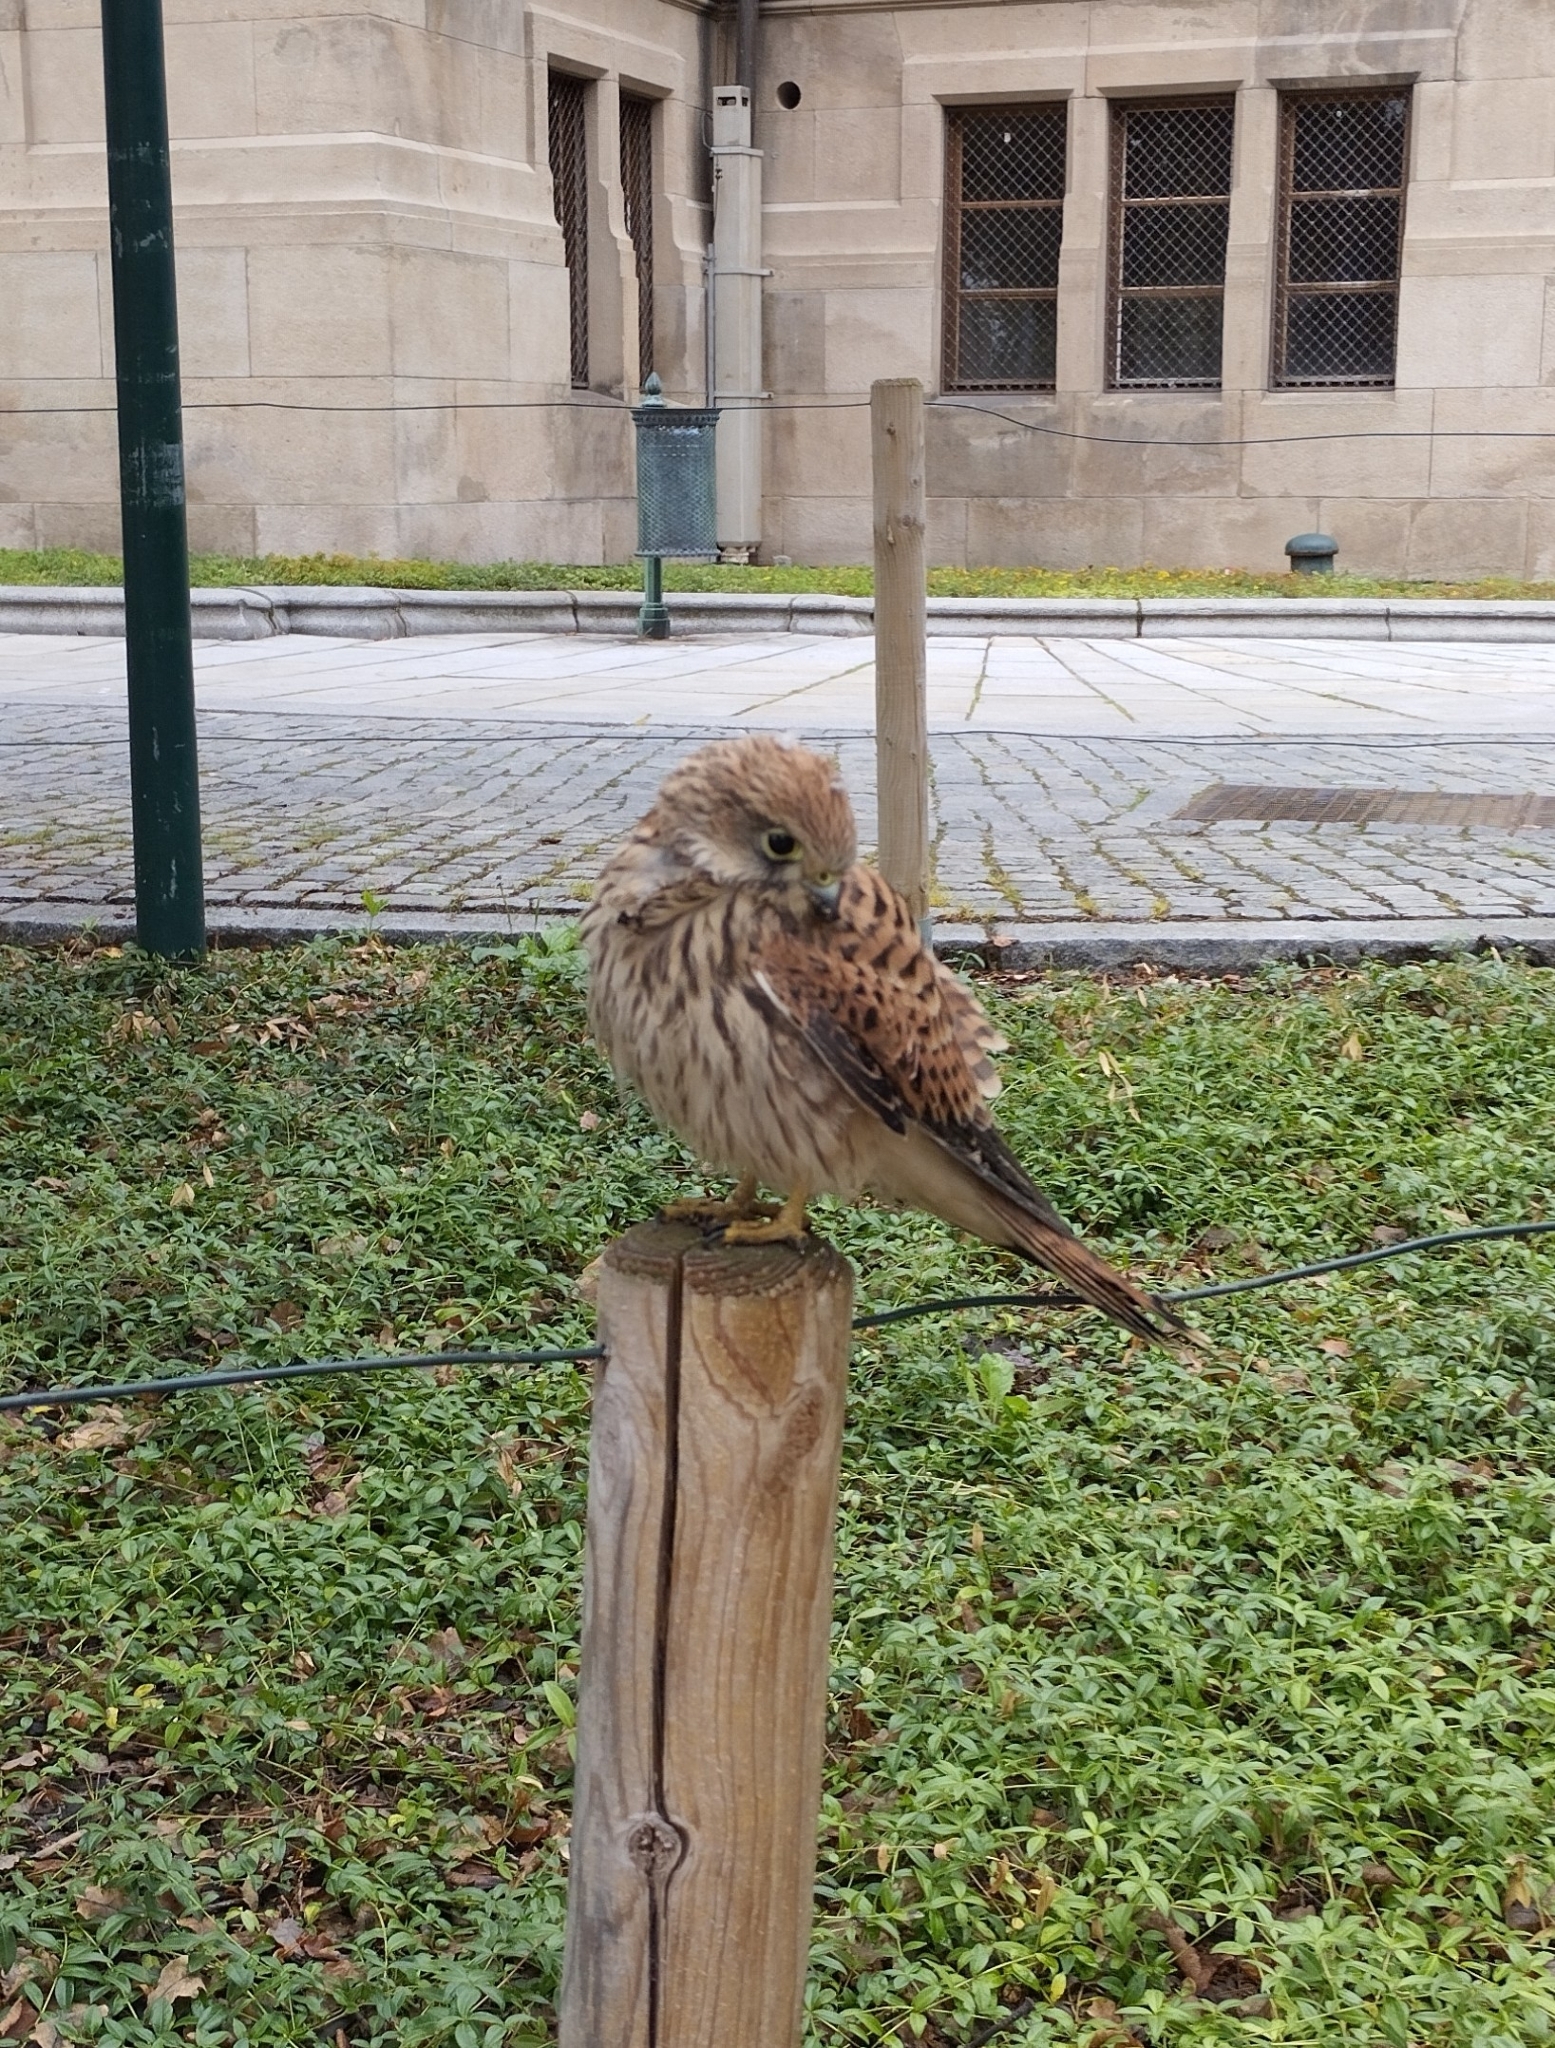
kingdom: Animalia
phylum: Chordata
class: Aves
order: Falconiformes
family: Falconidae
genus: Falco
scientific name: Falco tinnunculus
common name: Common kestrel
